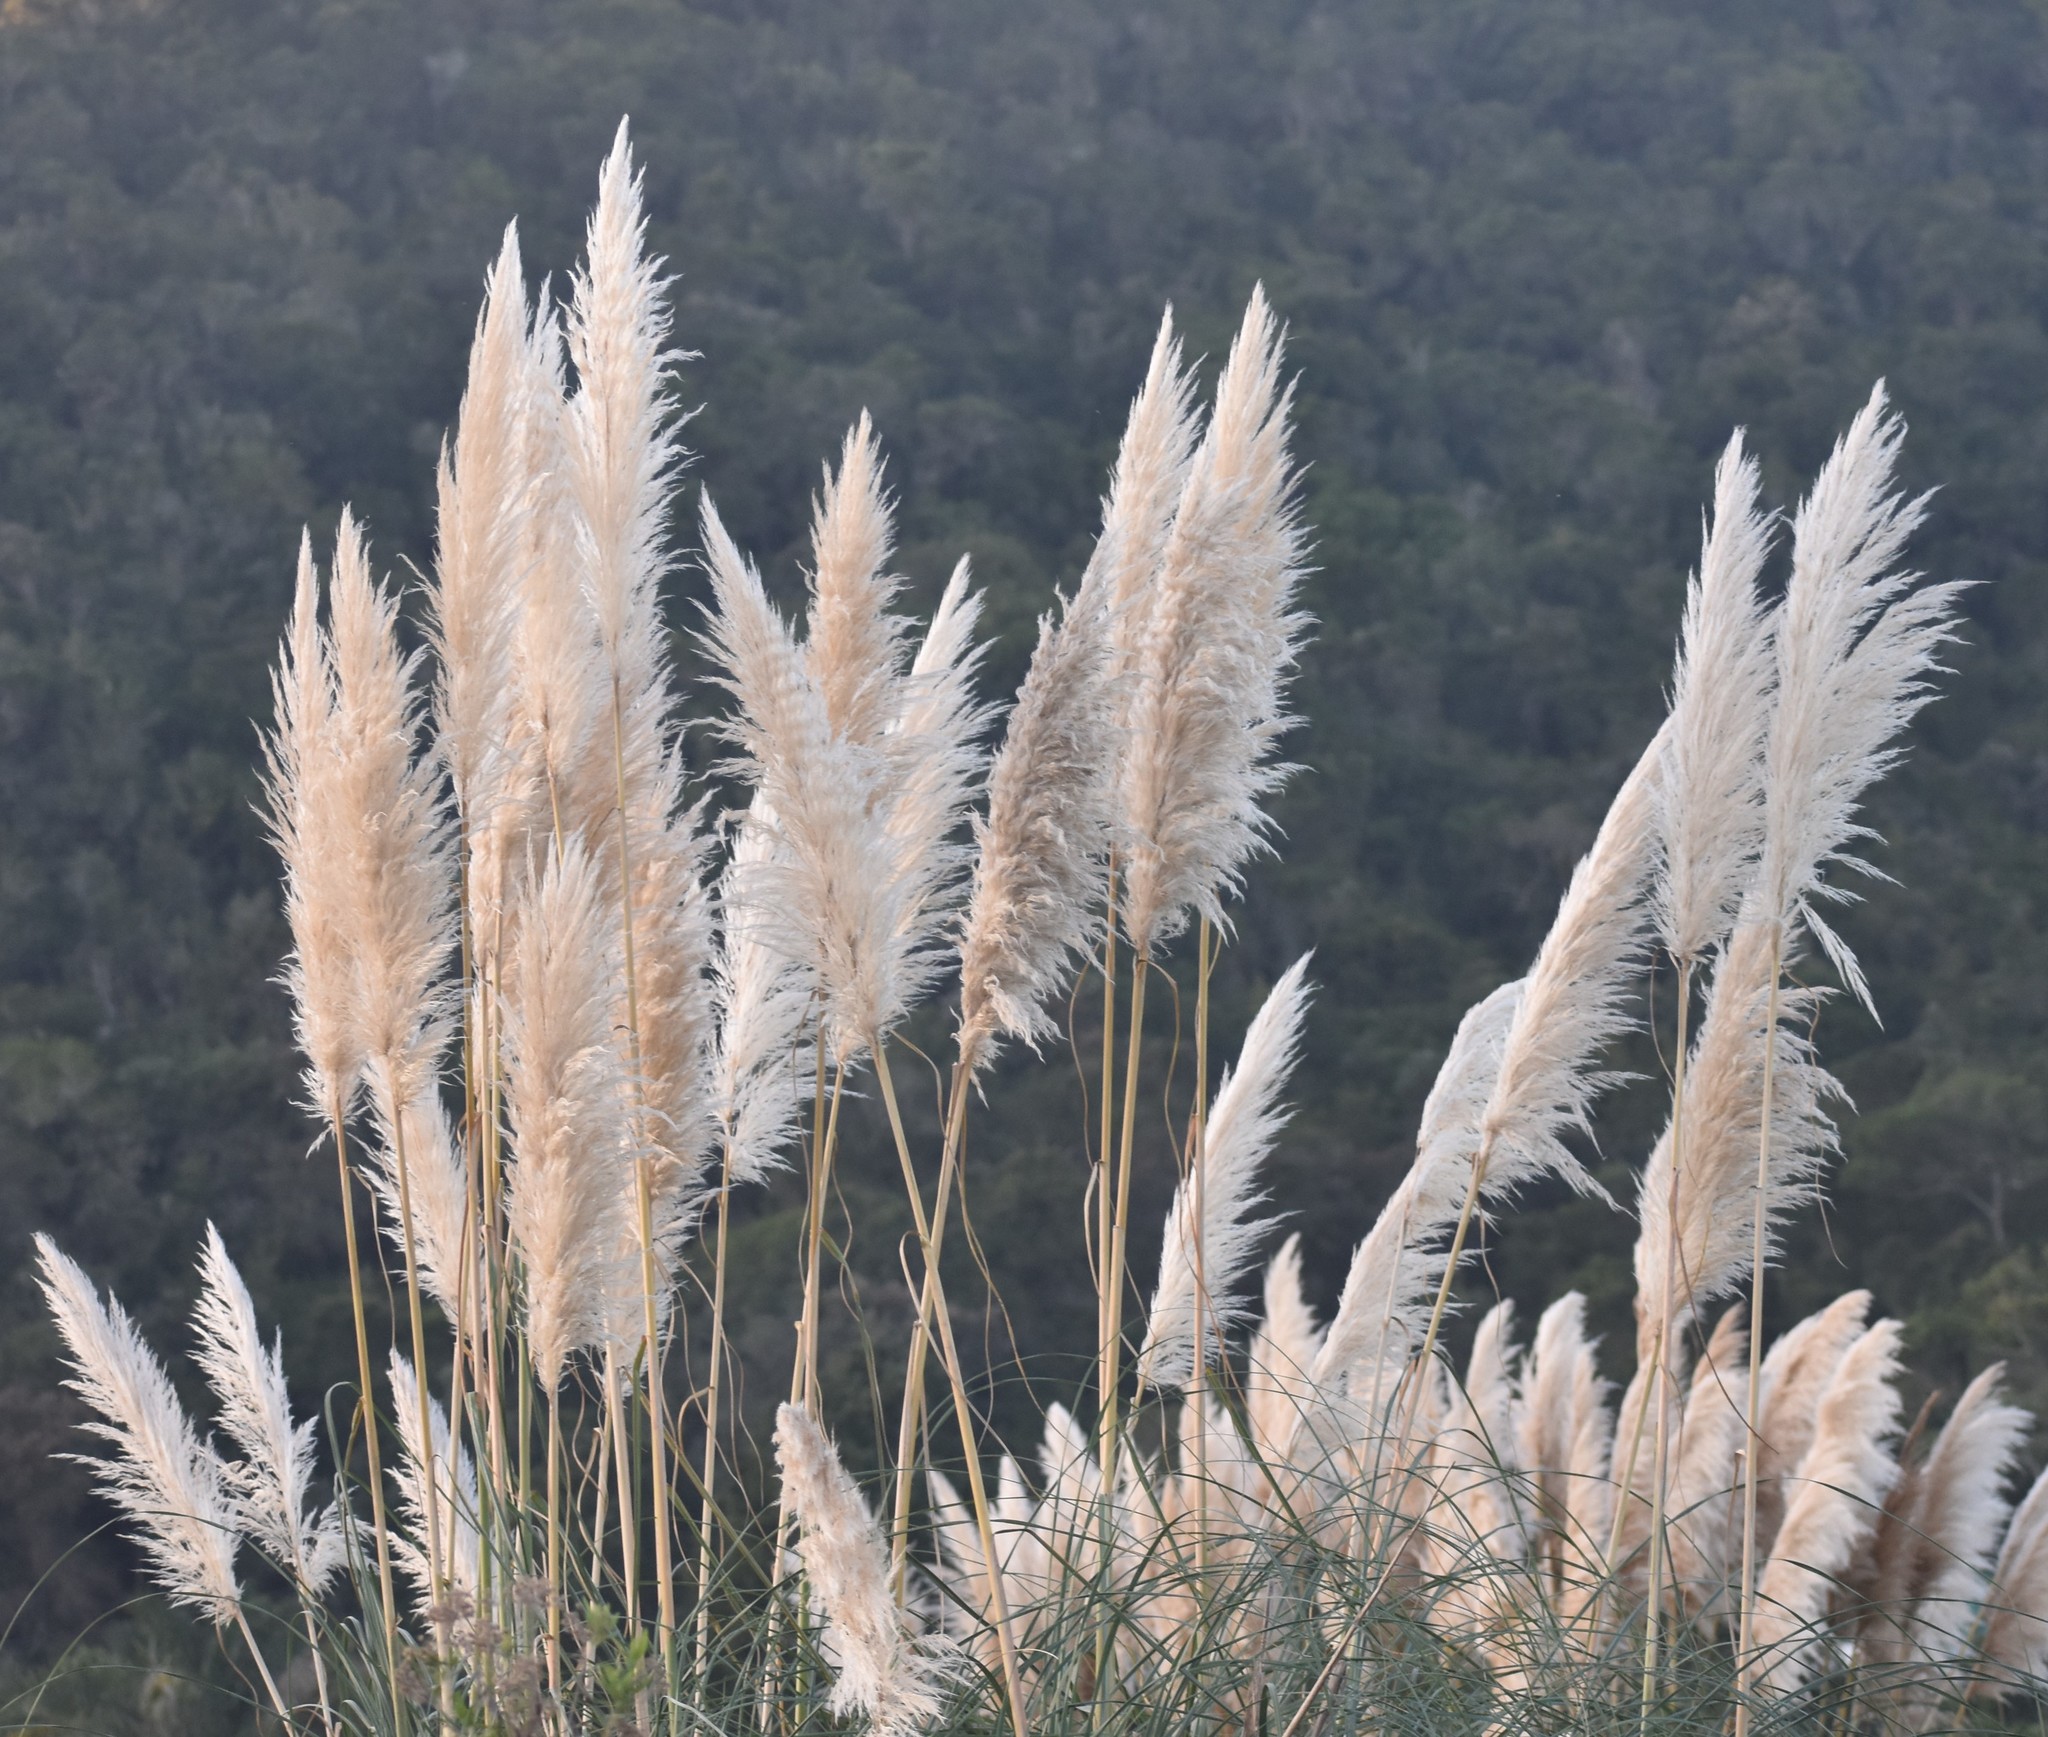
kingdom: Plantae
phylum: Tracheophyta
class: Liliopsida
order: Poales
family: Poaceae
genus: Cortaderia
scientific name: Cortaderia selloana
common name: Uruguayan pampas grass
